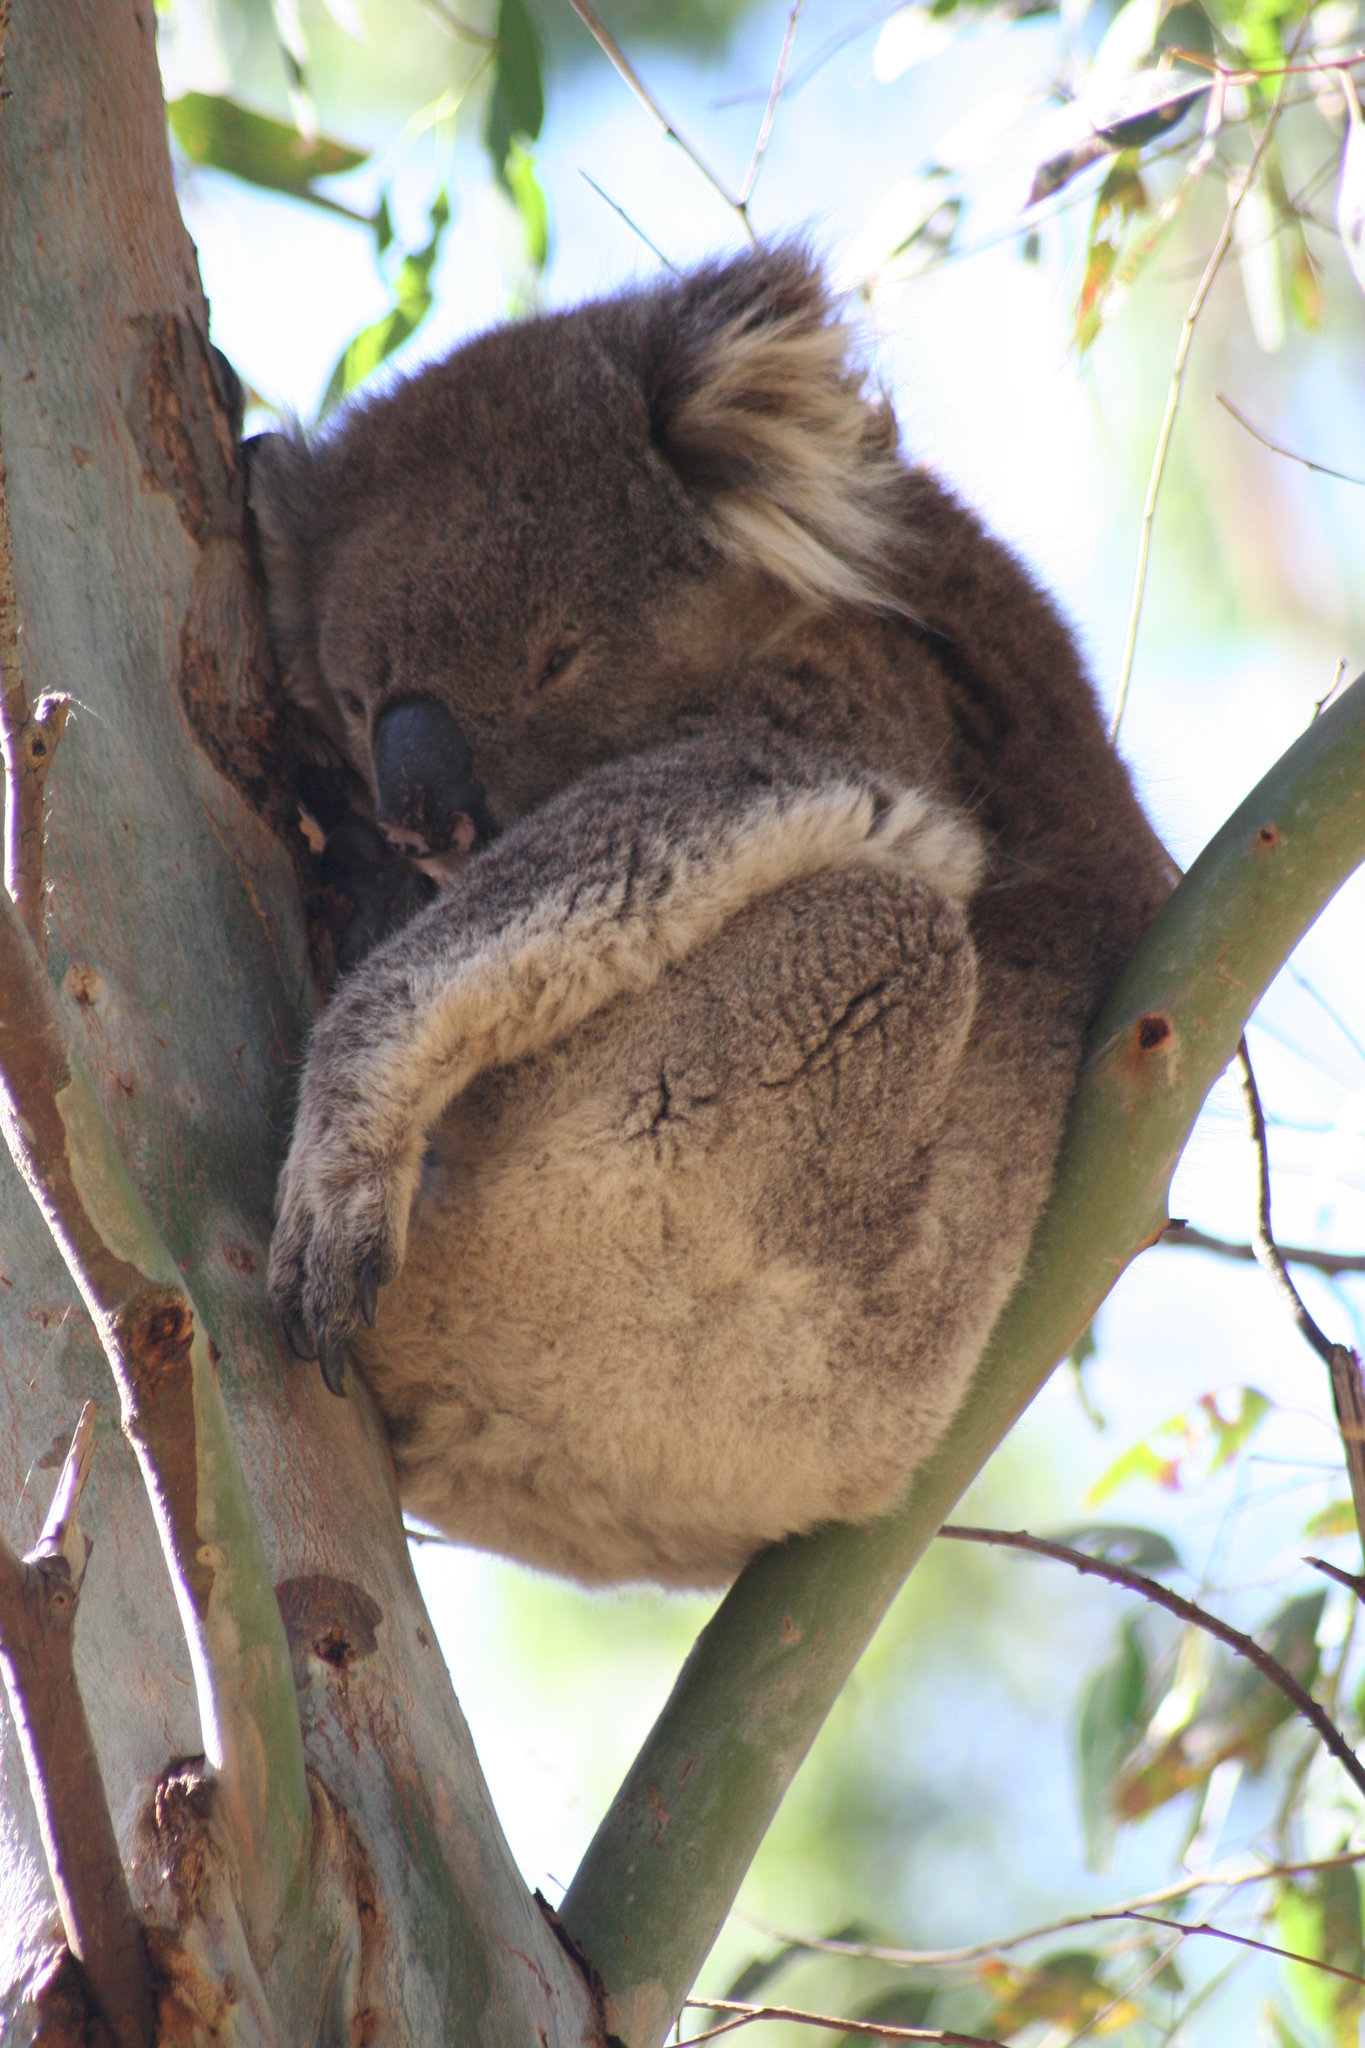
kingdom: Animalia
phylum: Chordata
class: Mammalia
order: Diprotodontia
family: Phascolarctidae
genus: Phascolarctos
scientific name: Phascolarctos cinereus
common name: Koala
